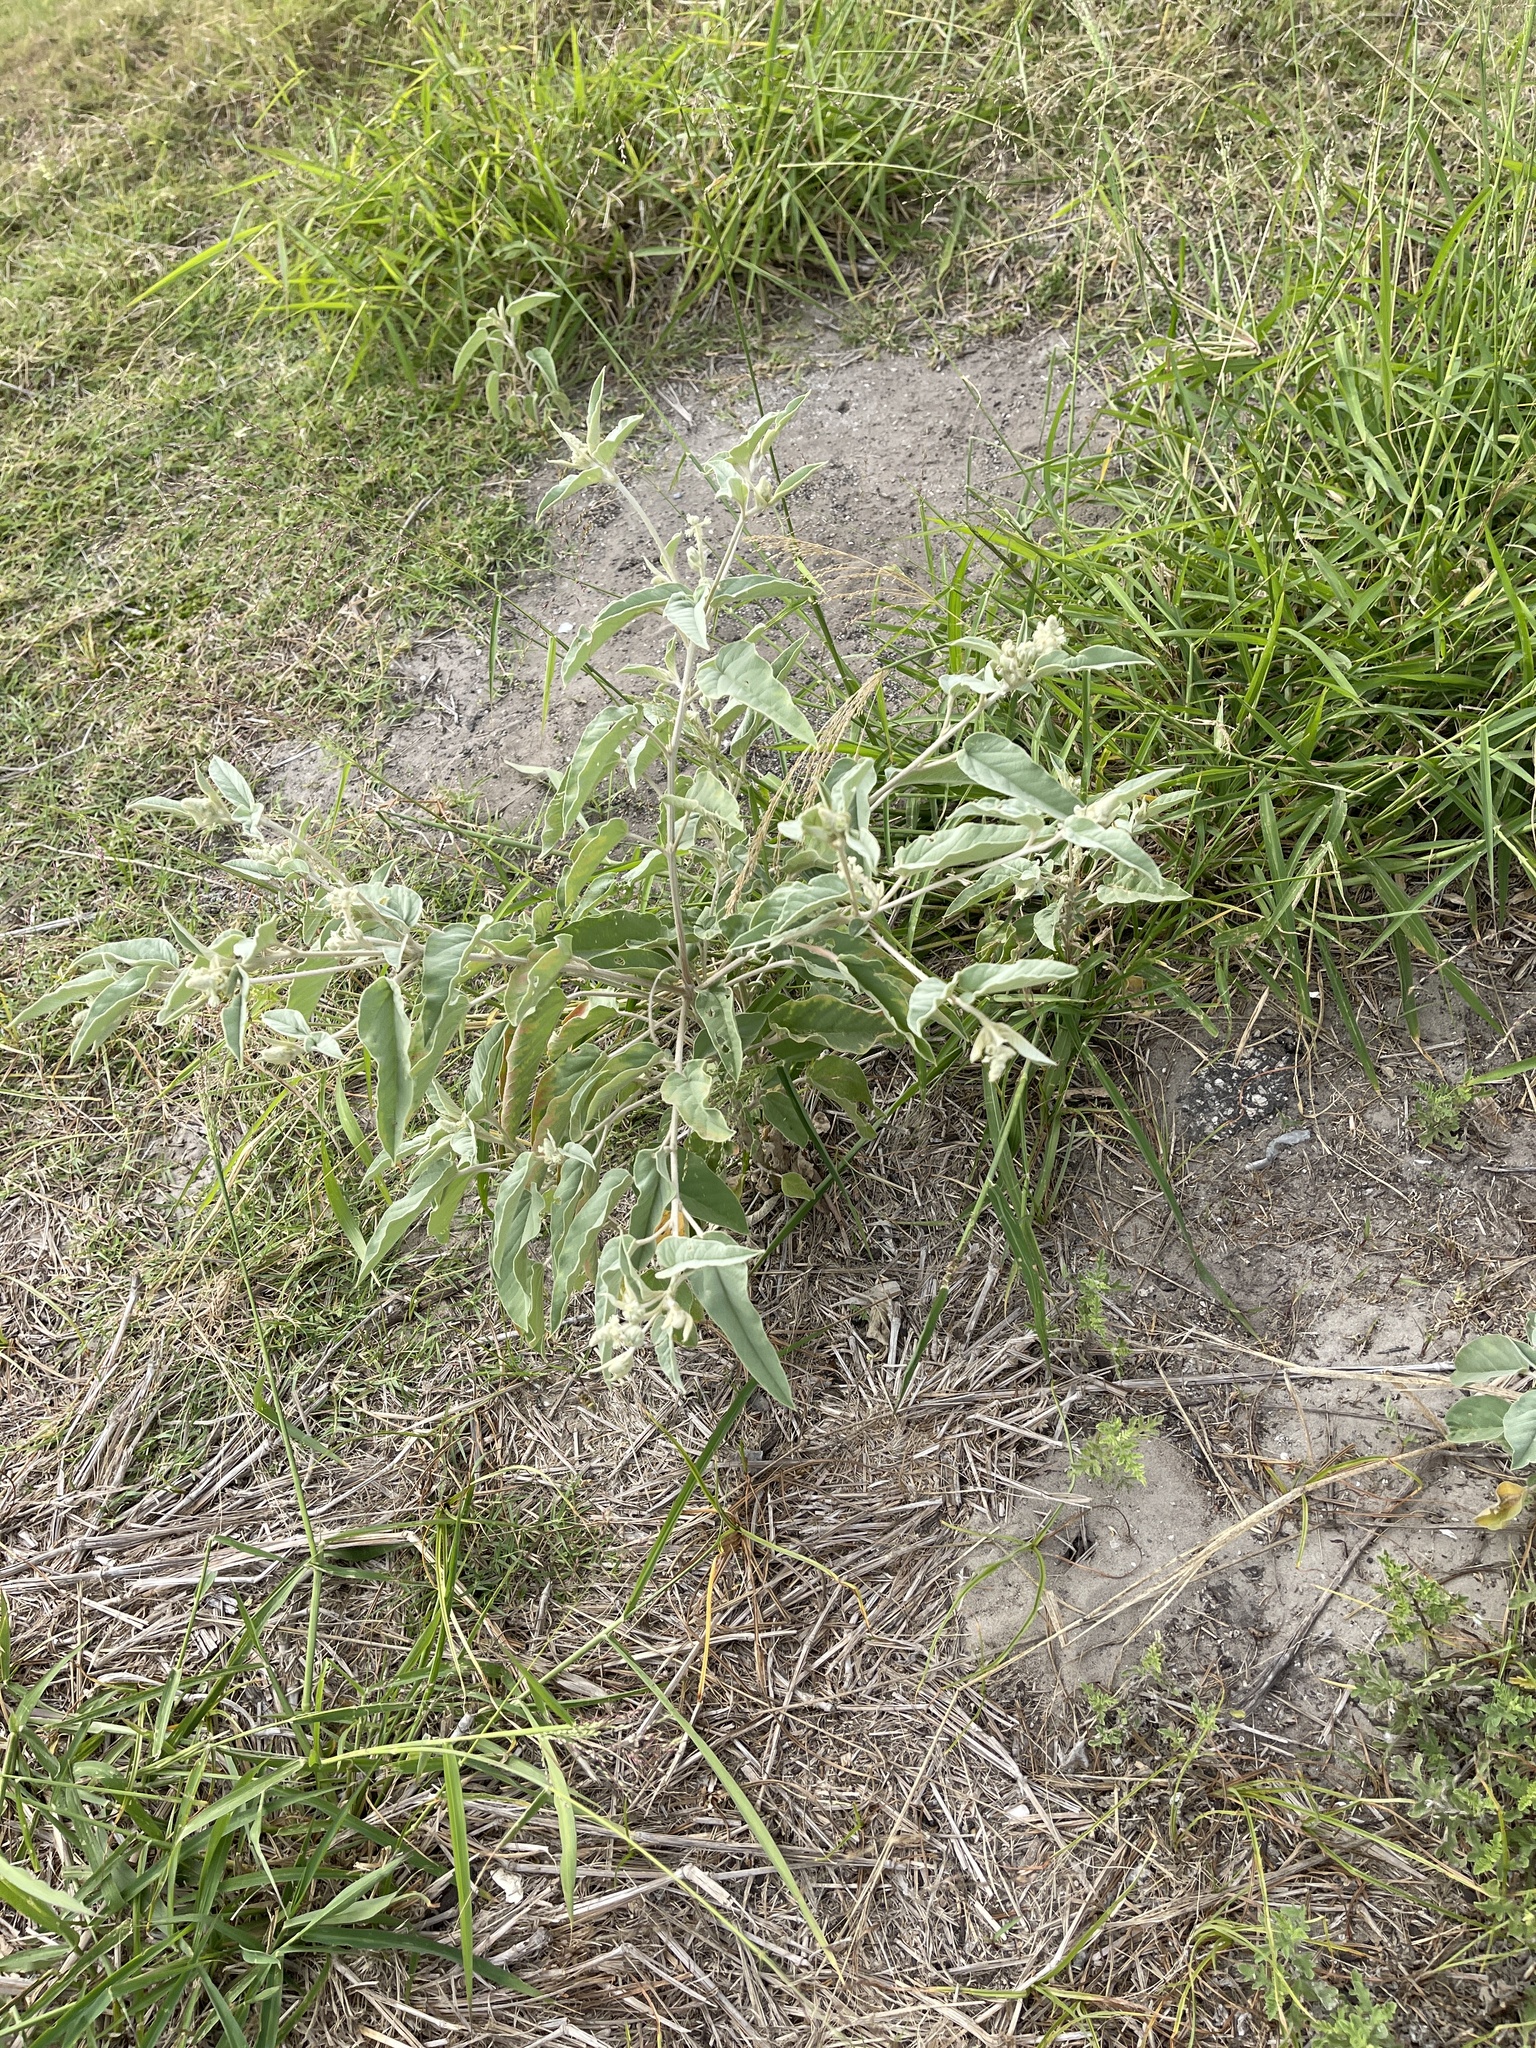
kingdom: Plantae
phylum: Tracheophyta
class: Magnoliopsida
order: Malpighiales
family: Euphorbiaceae
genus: Croton
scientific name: Croton lindheimeri
